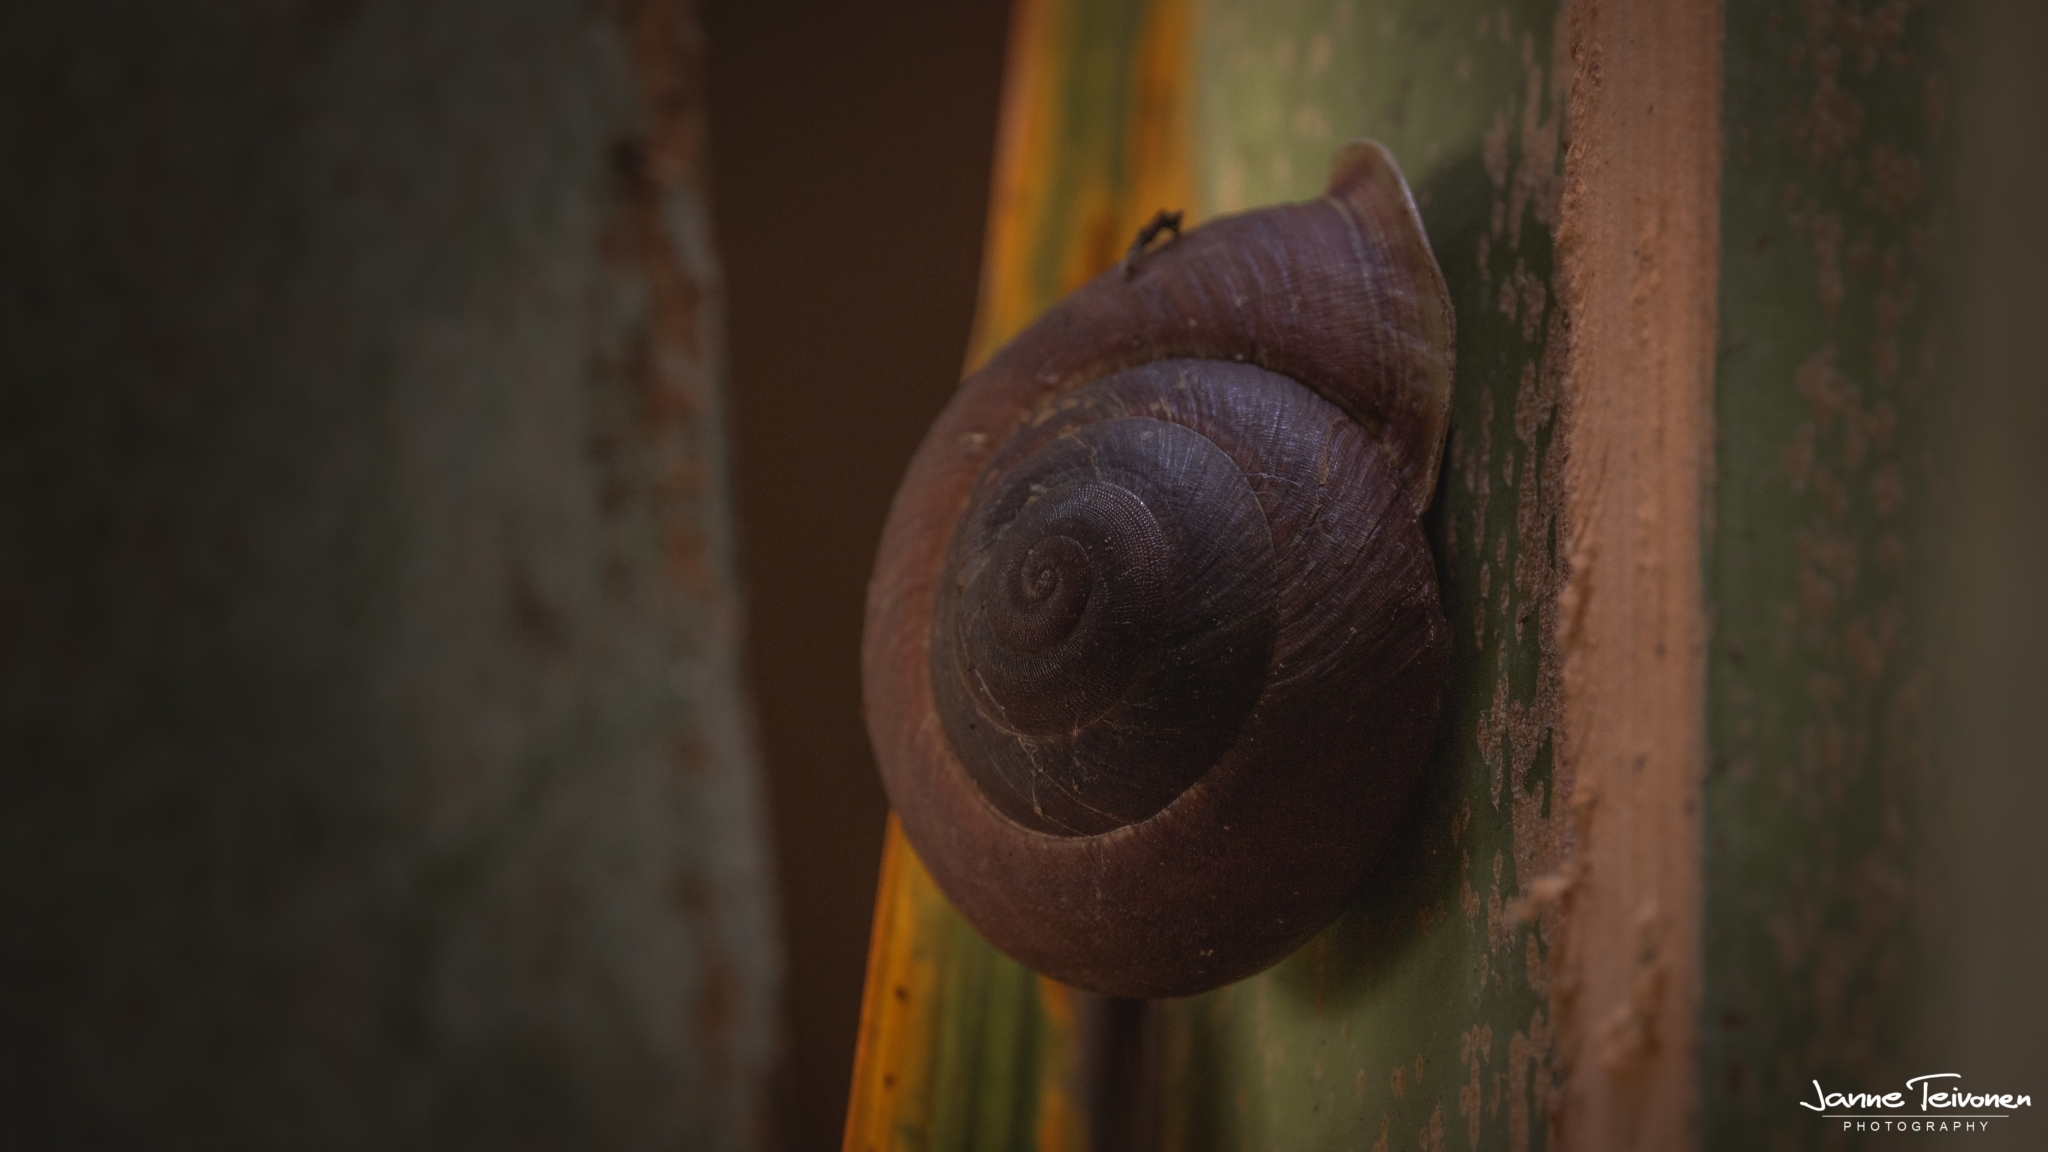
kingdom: Animalia
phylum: Mollusca
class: Gastropoda
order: Stylommatophora
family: Acavidae
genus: Stylodonta
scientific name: Stylodonta studeriana
